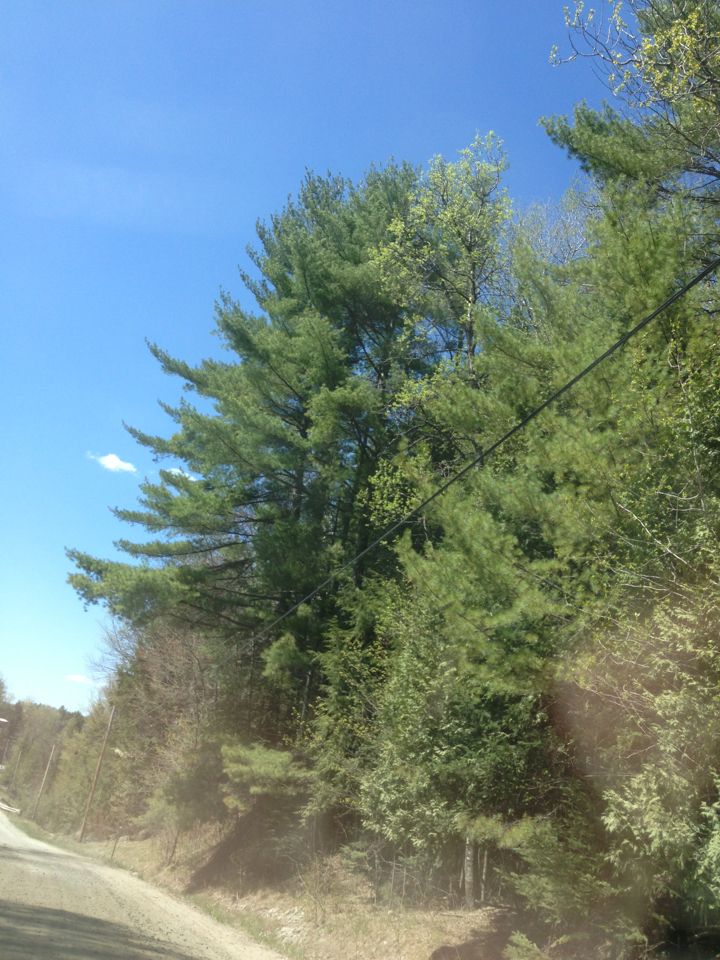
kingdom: Plantae
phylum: Tracheophyta
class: Pinopsida
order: Pinales
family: Pinaceae
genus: Pinus
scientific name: Pinus strobus
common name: Weymouth pine
